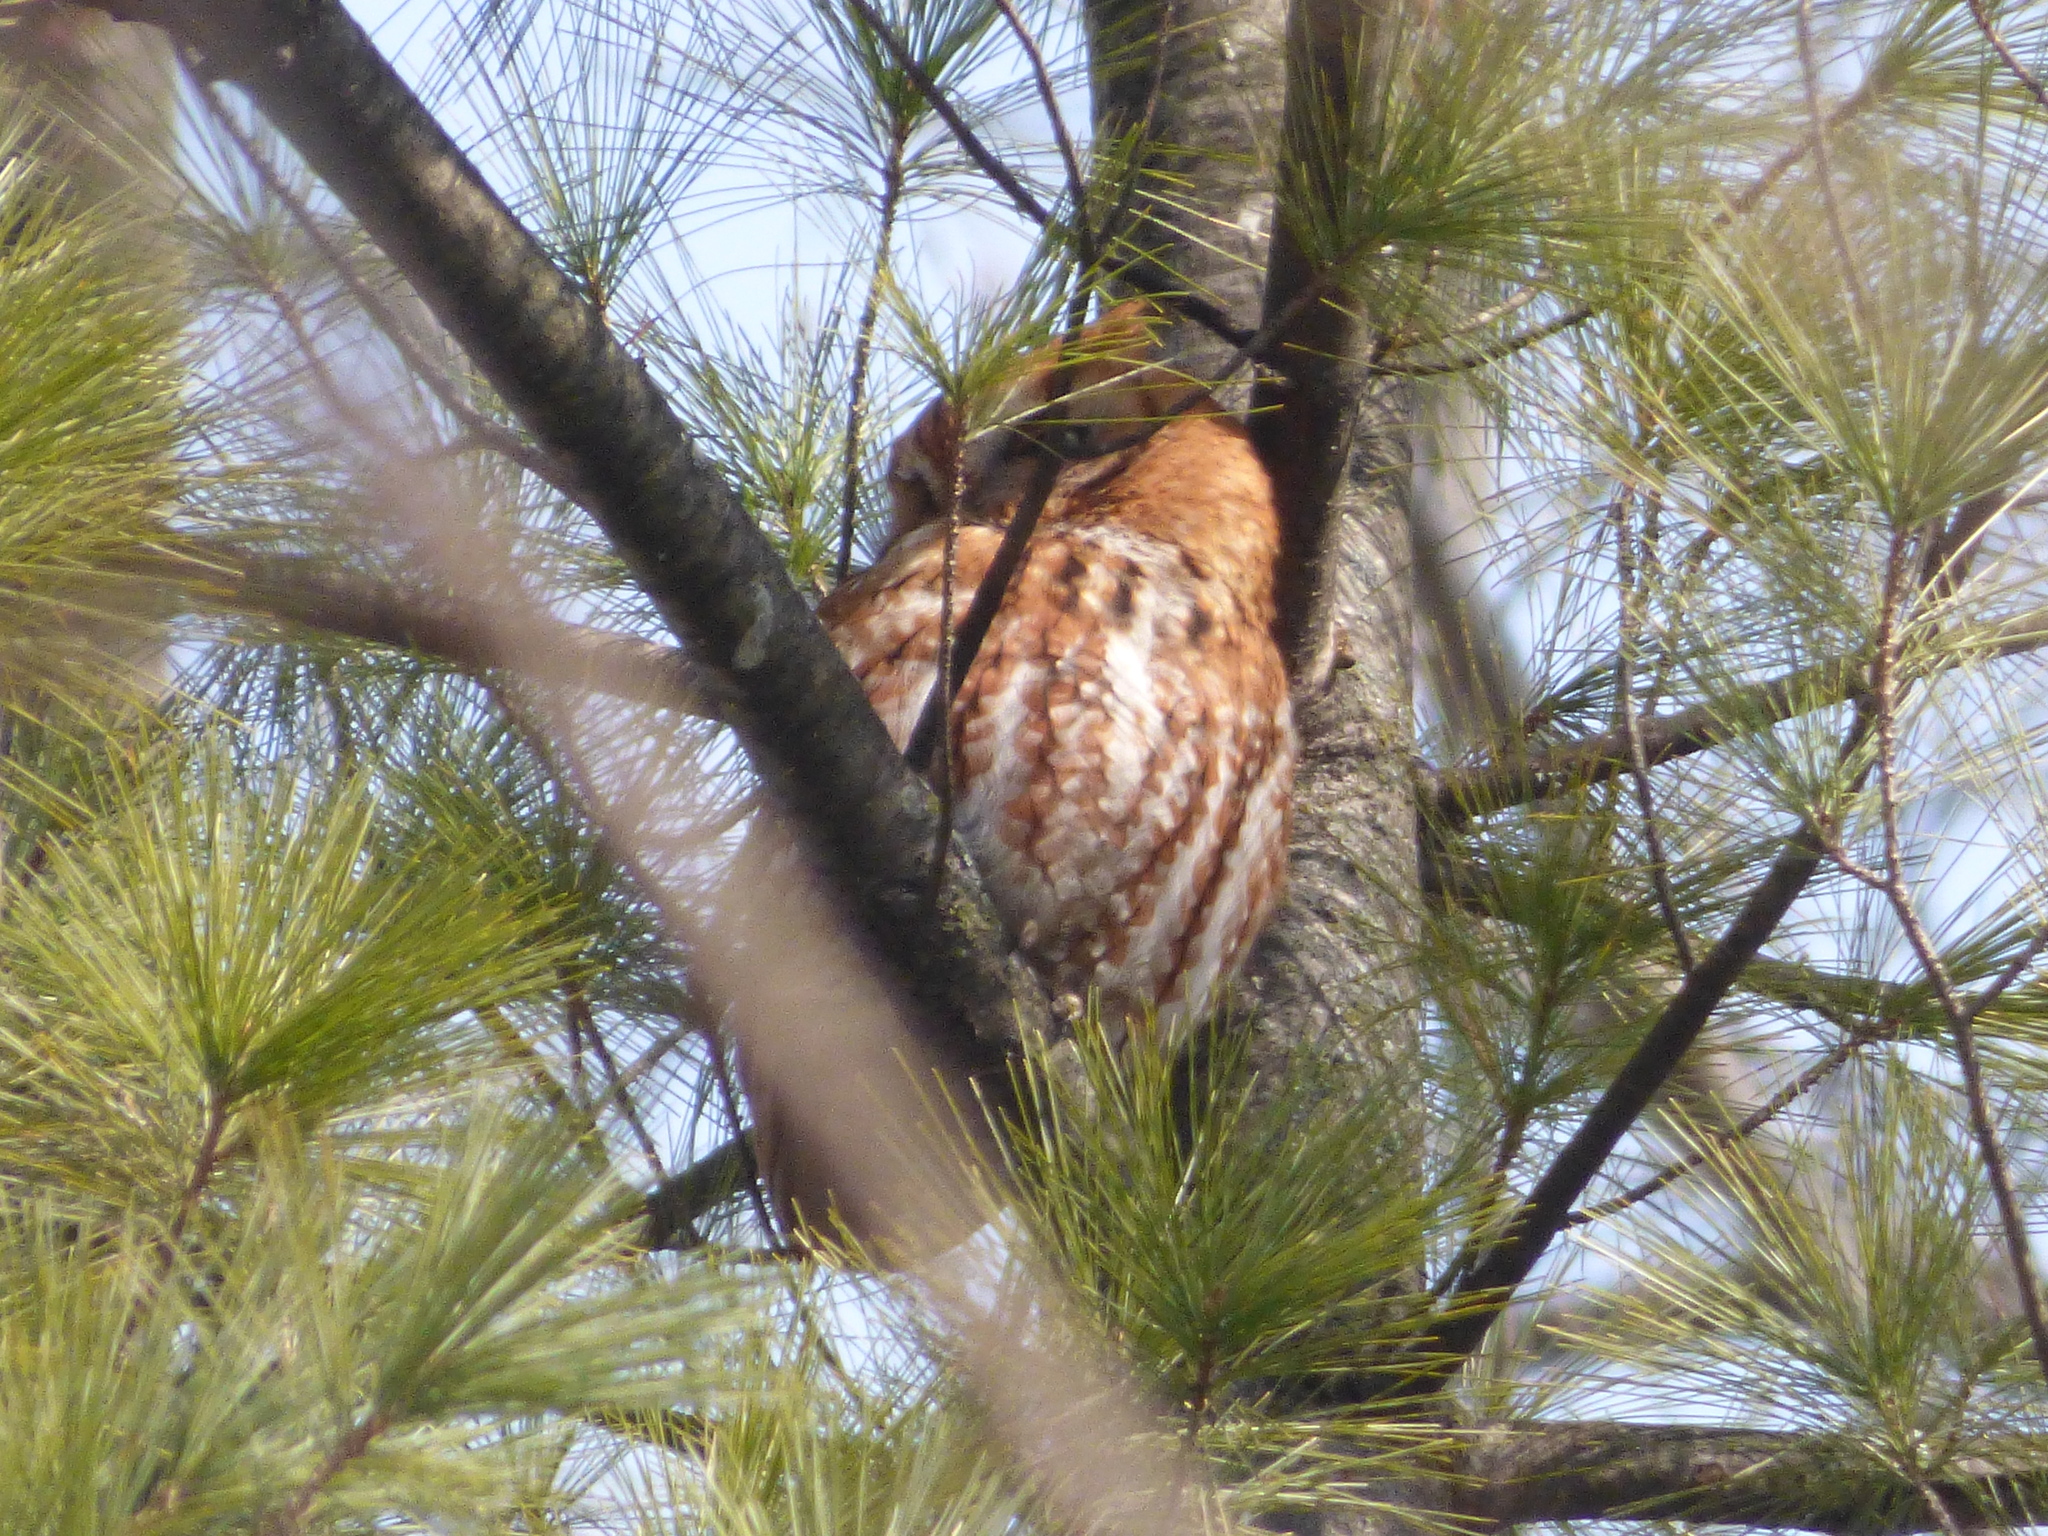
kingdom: Animalia
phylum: Chordata
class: Aves
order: Strigiformes
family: Strigidae
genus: Megascops
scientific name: Megascops asio
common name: Eastern screech-owl
